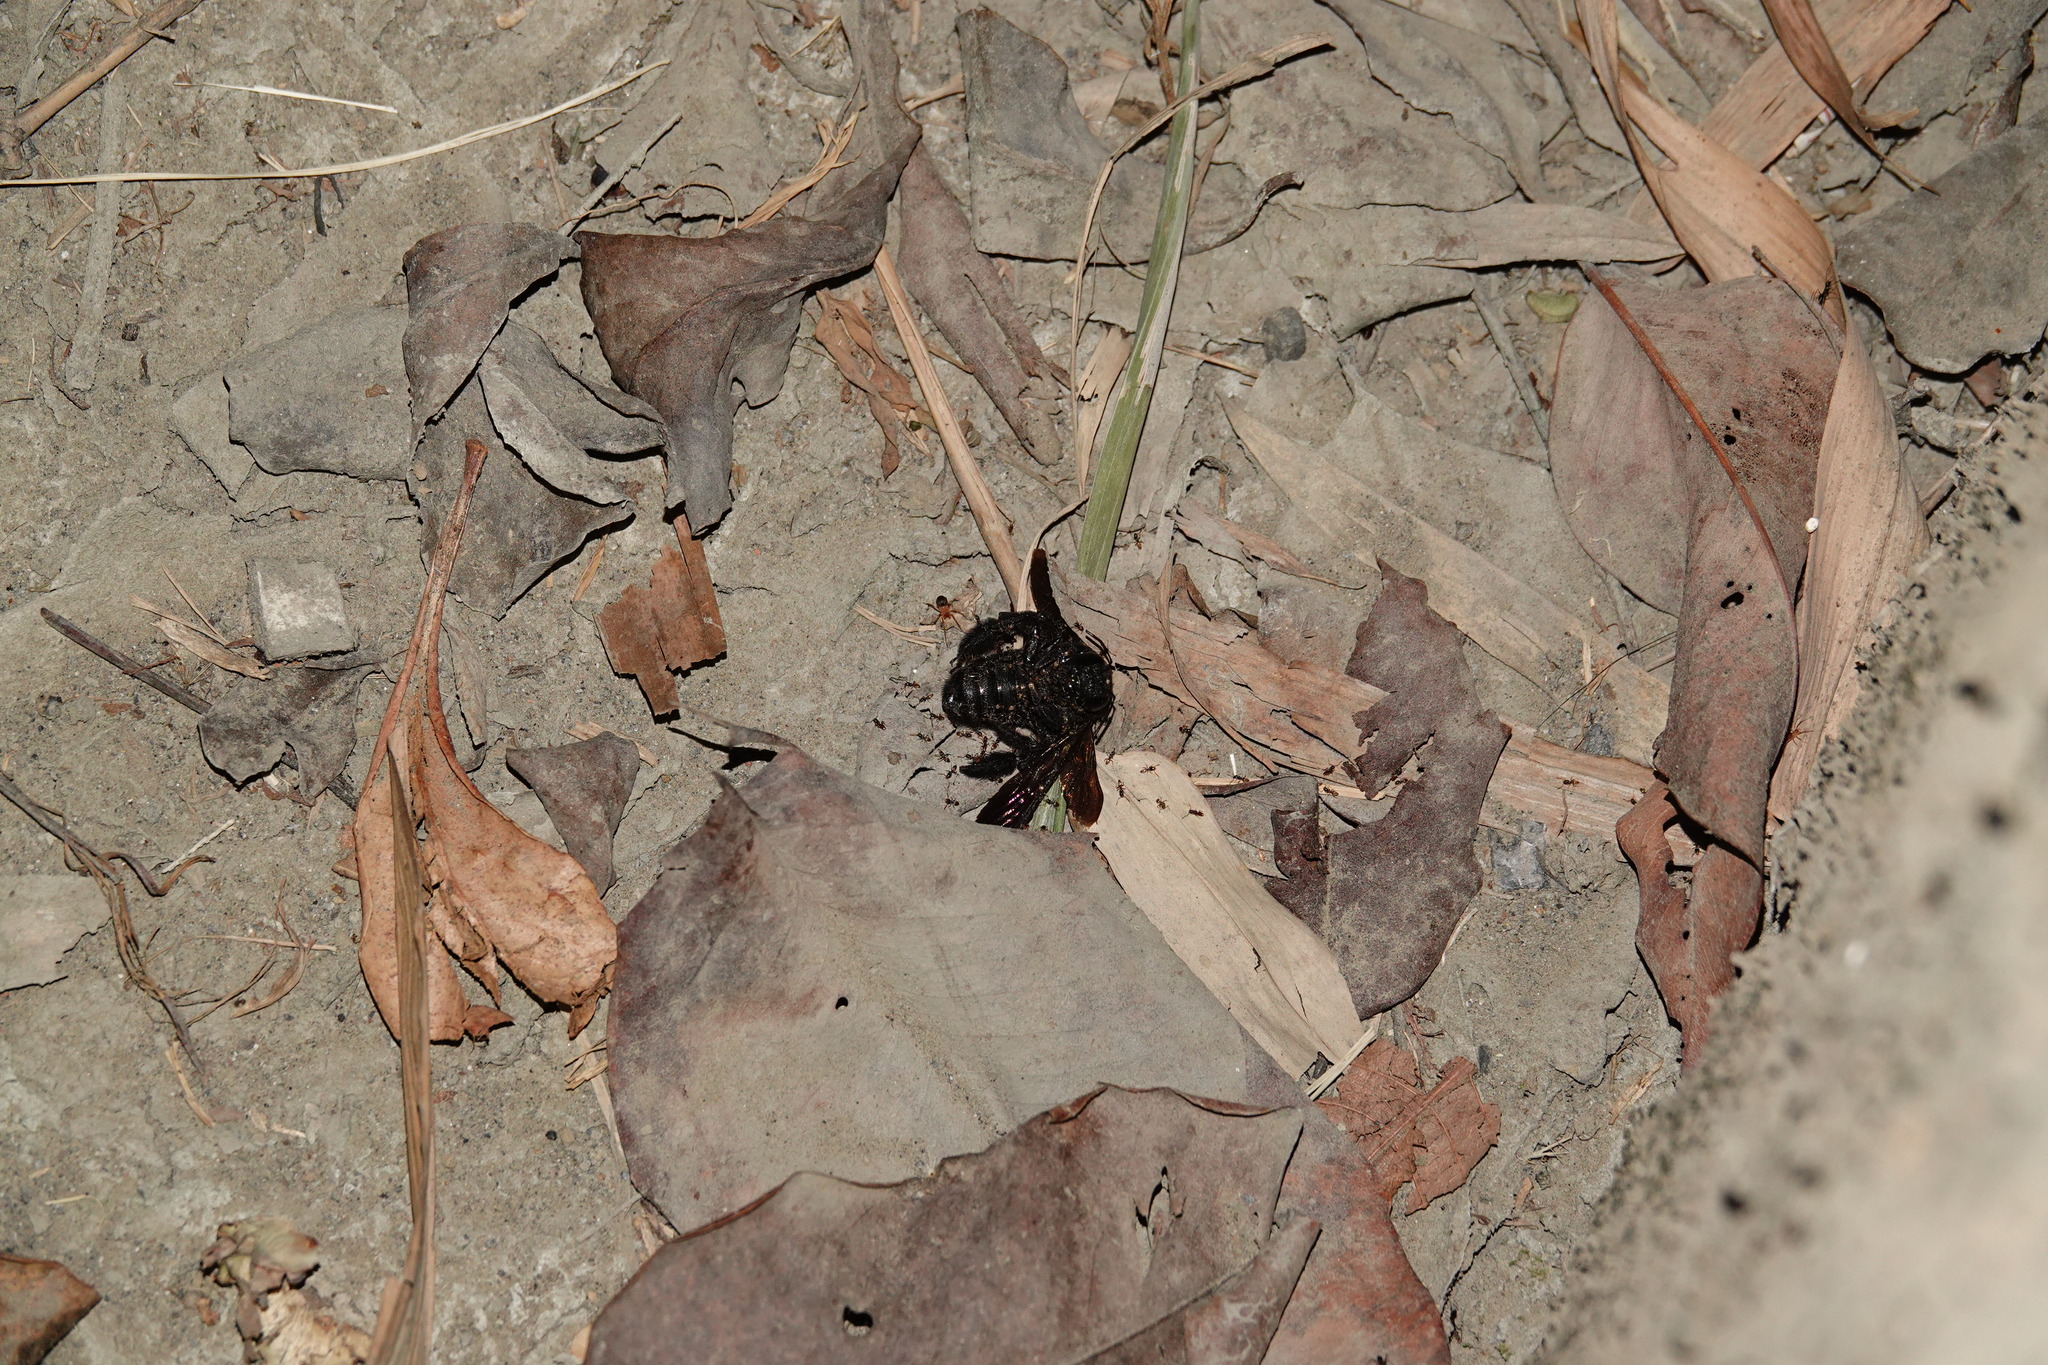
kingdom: Animalia
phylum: Arthropoda
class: Insecta
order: Hymenoptera
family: Apidae
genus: Xylocopa
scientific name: Xylocopa tranquebarorum
